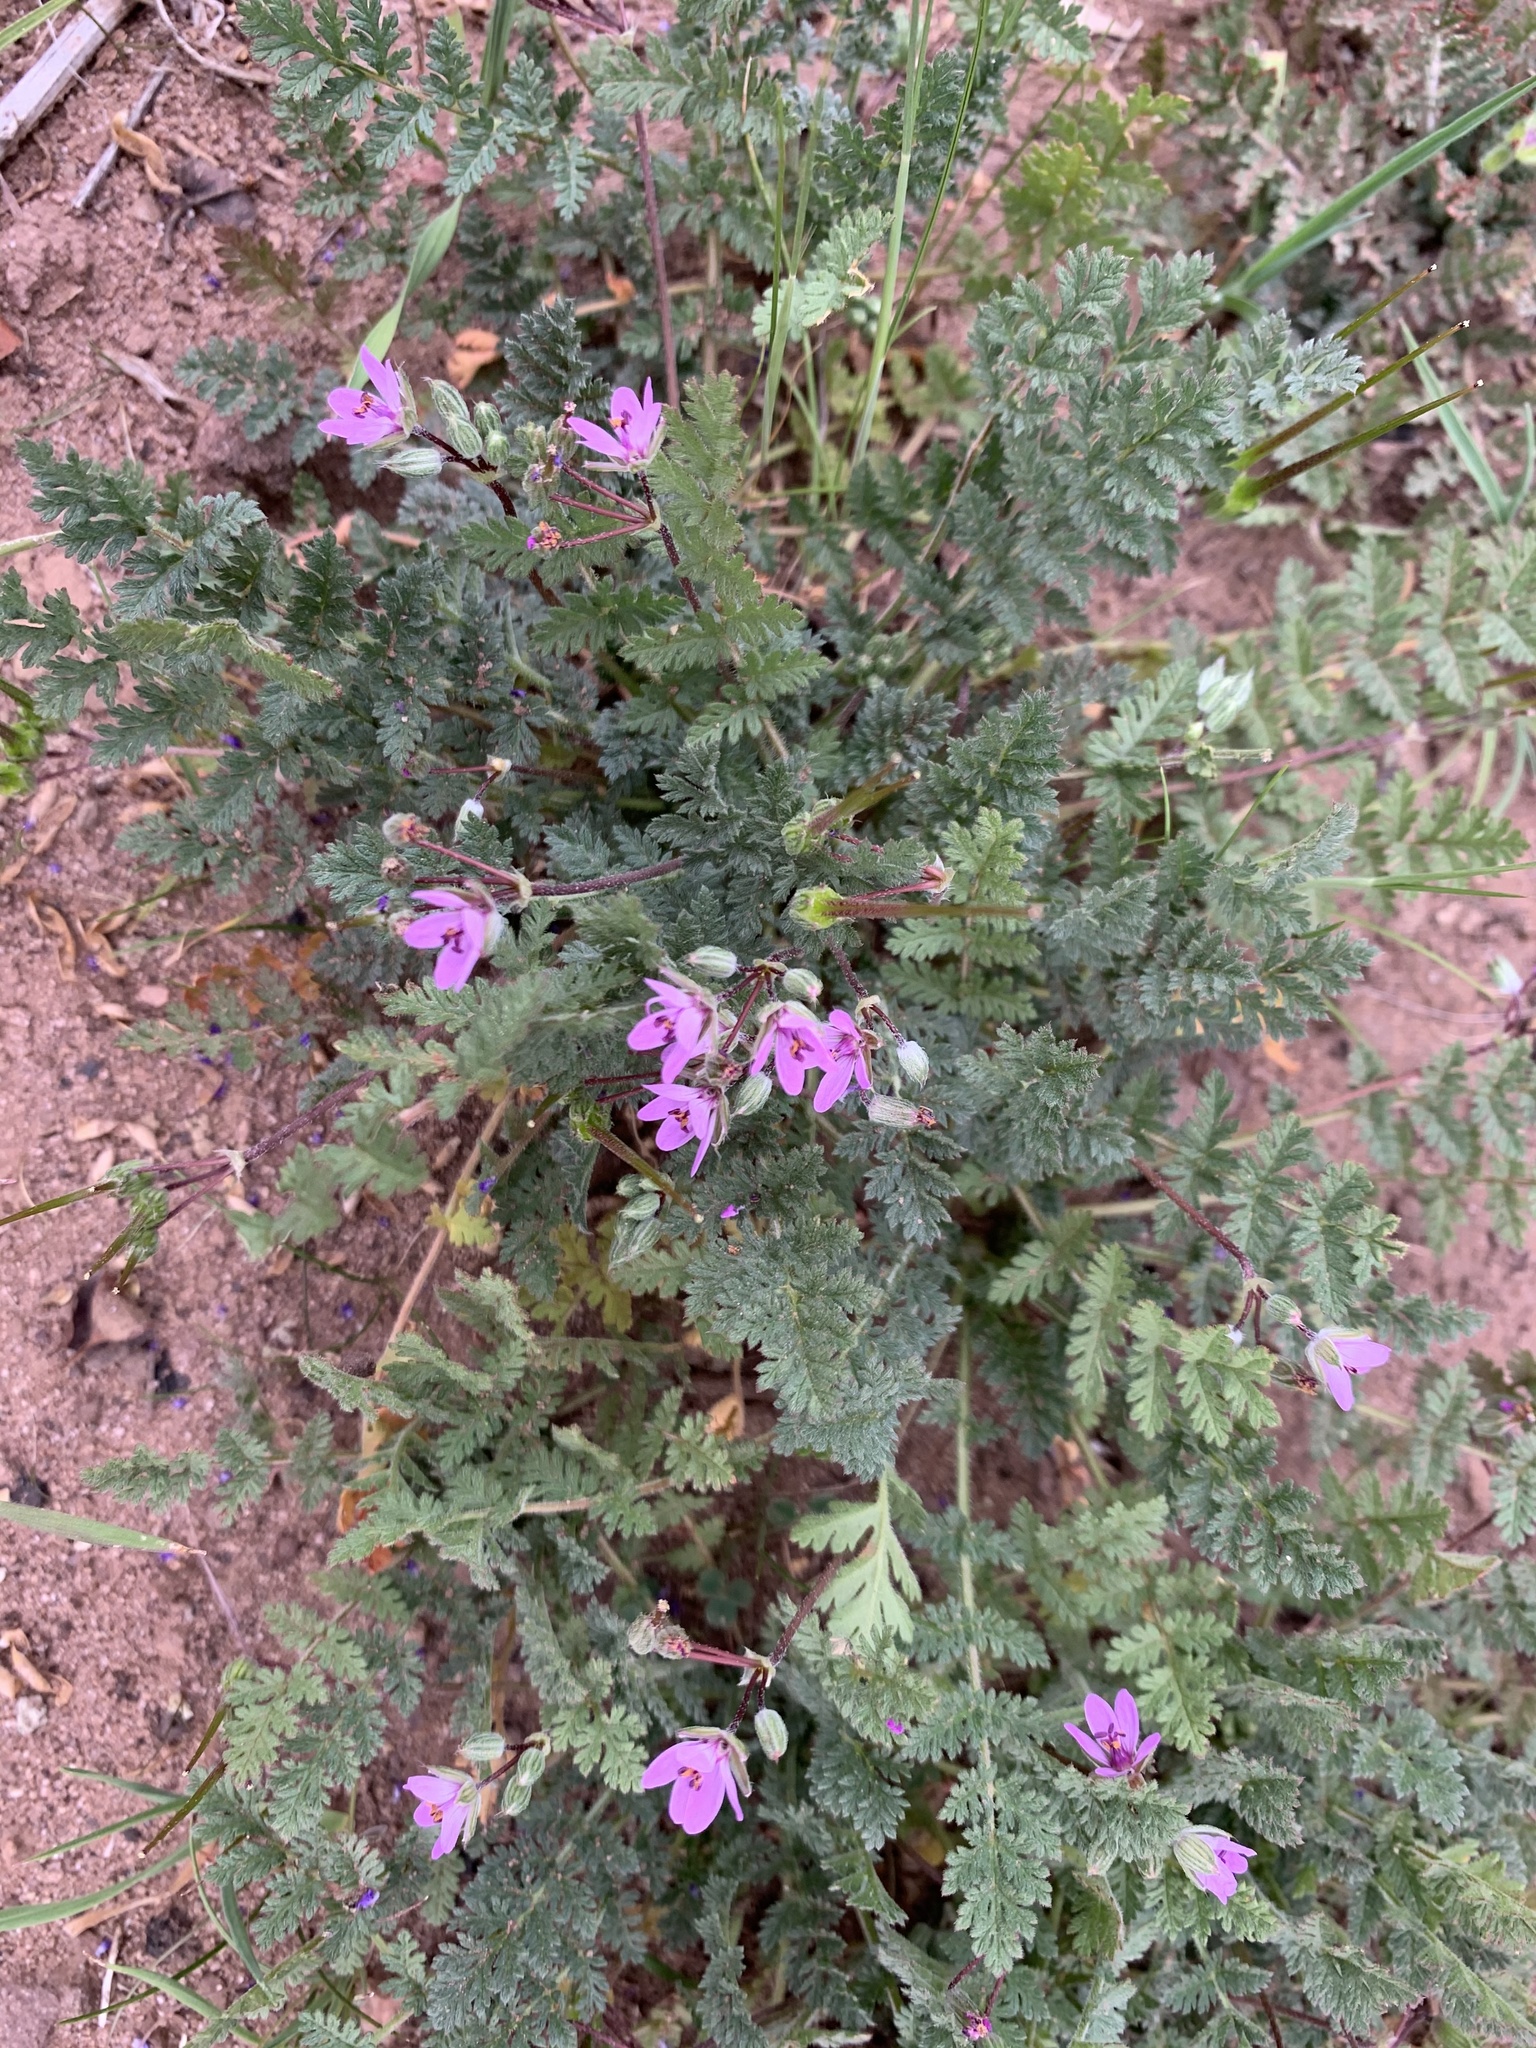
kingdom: Plantae
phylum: Tracheophyta
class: Magnoliopsida
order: Geraniales
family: Geraniaceae
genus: Erodium
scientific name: Erodium cicutarium
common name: Common stork's-bill
